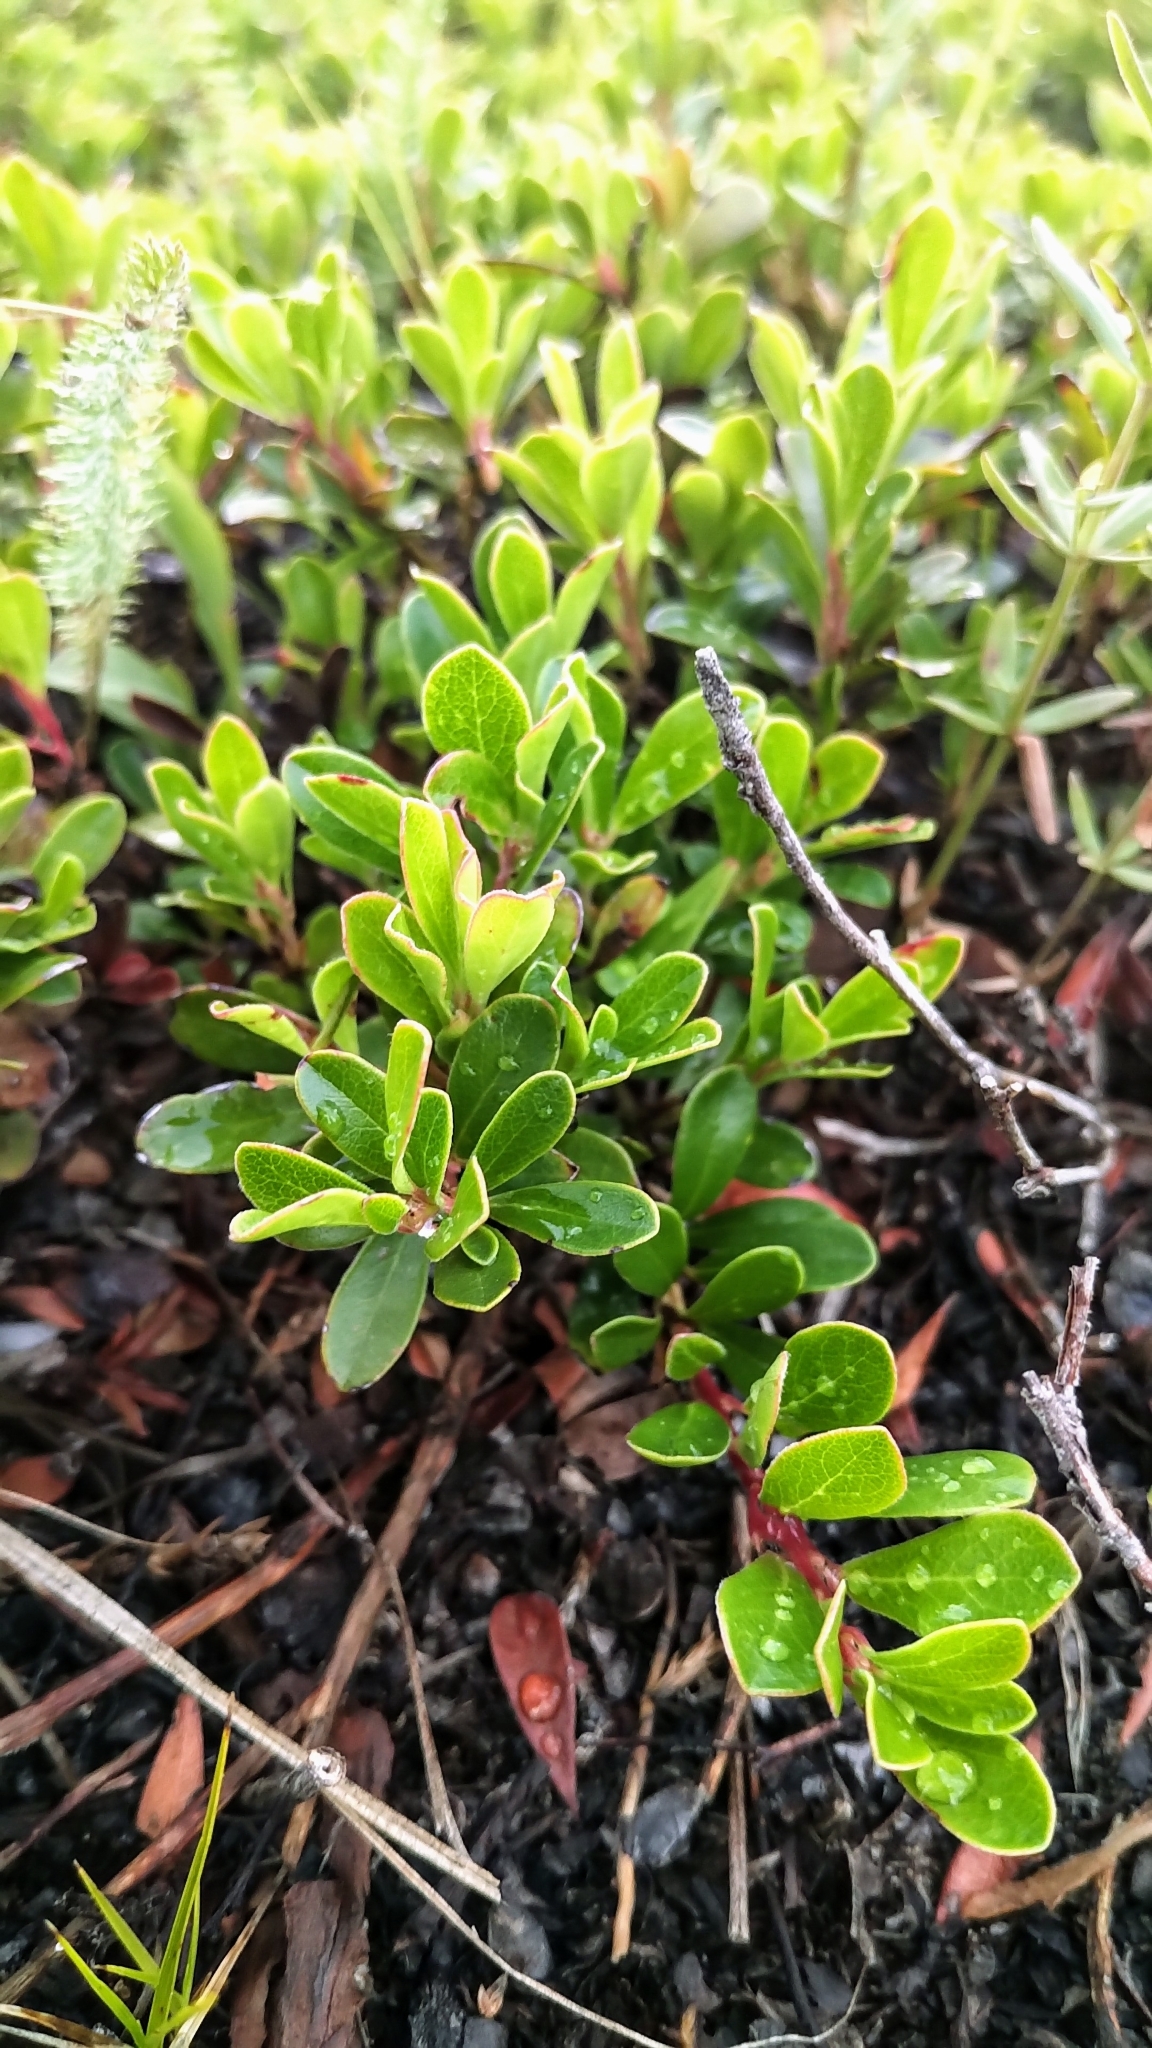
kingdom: Plantae
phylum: Tracheophyta
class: Magnoliopsida
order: Ericales
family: Ericaceae
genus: Arctostaphylos
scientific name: Arctostaphylos uva-ursi
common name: Bearberry
